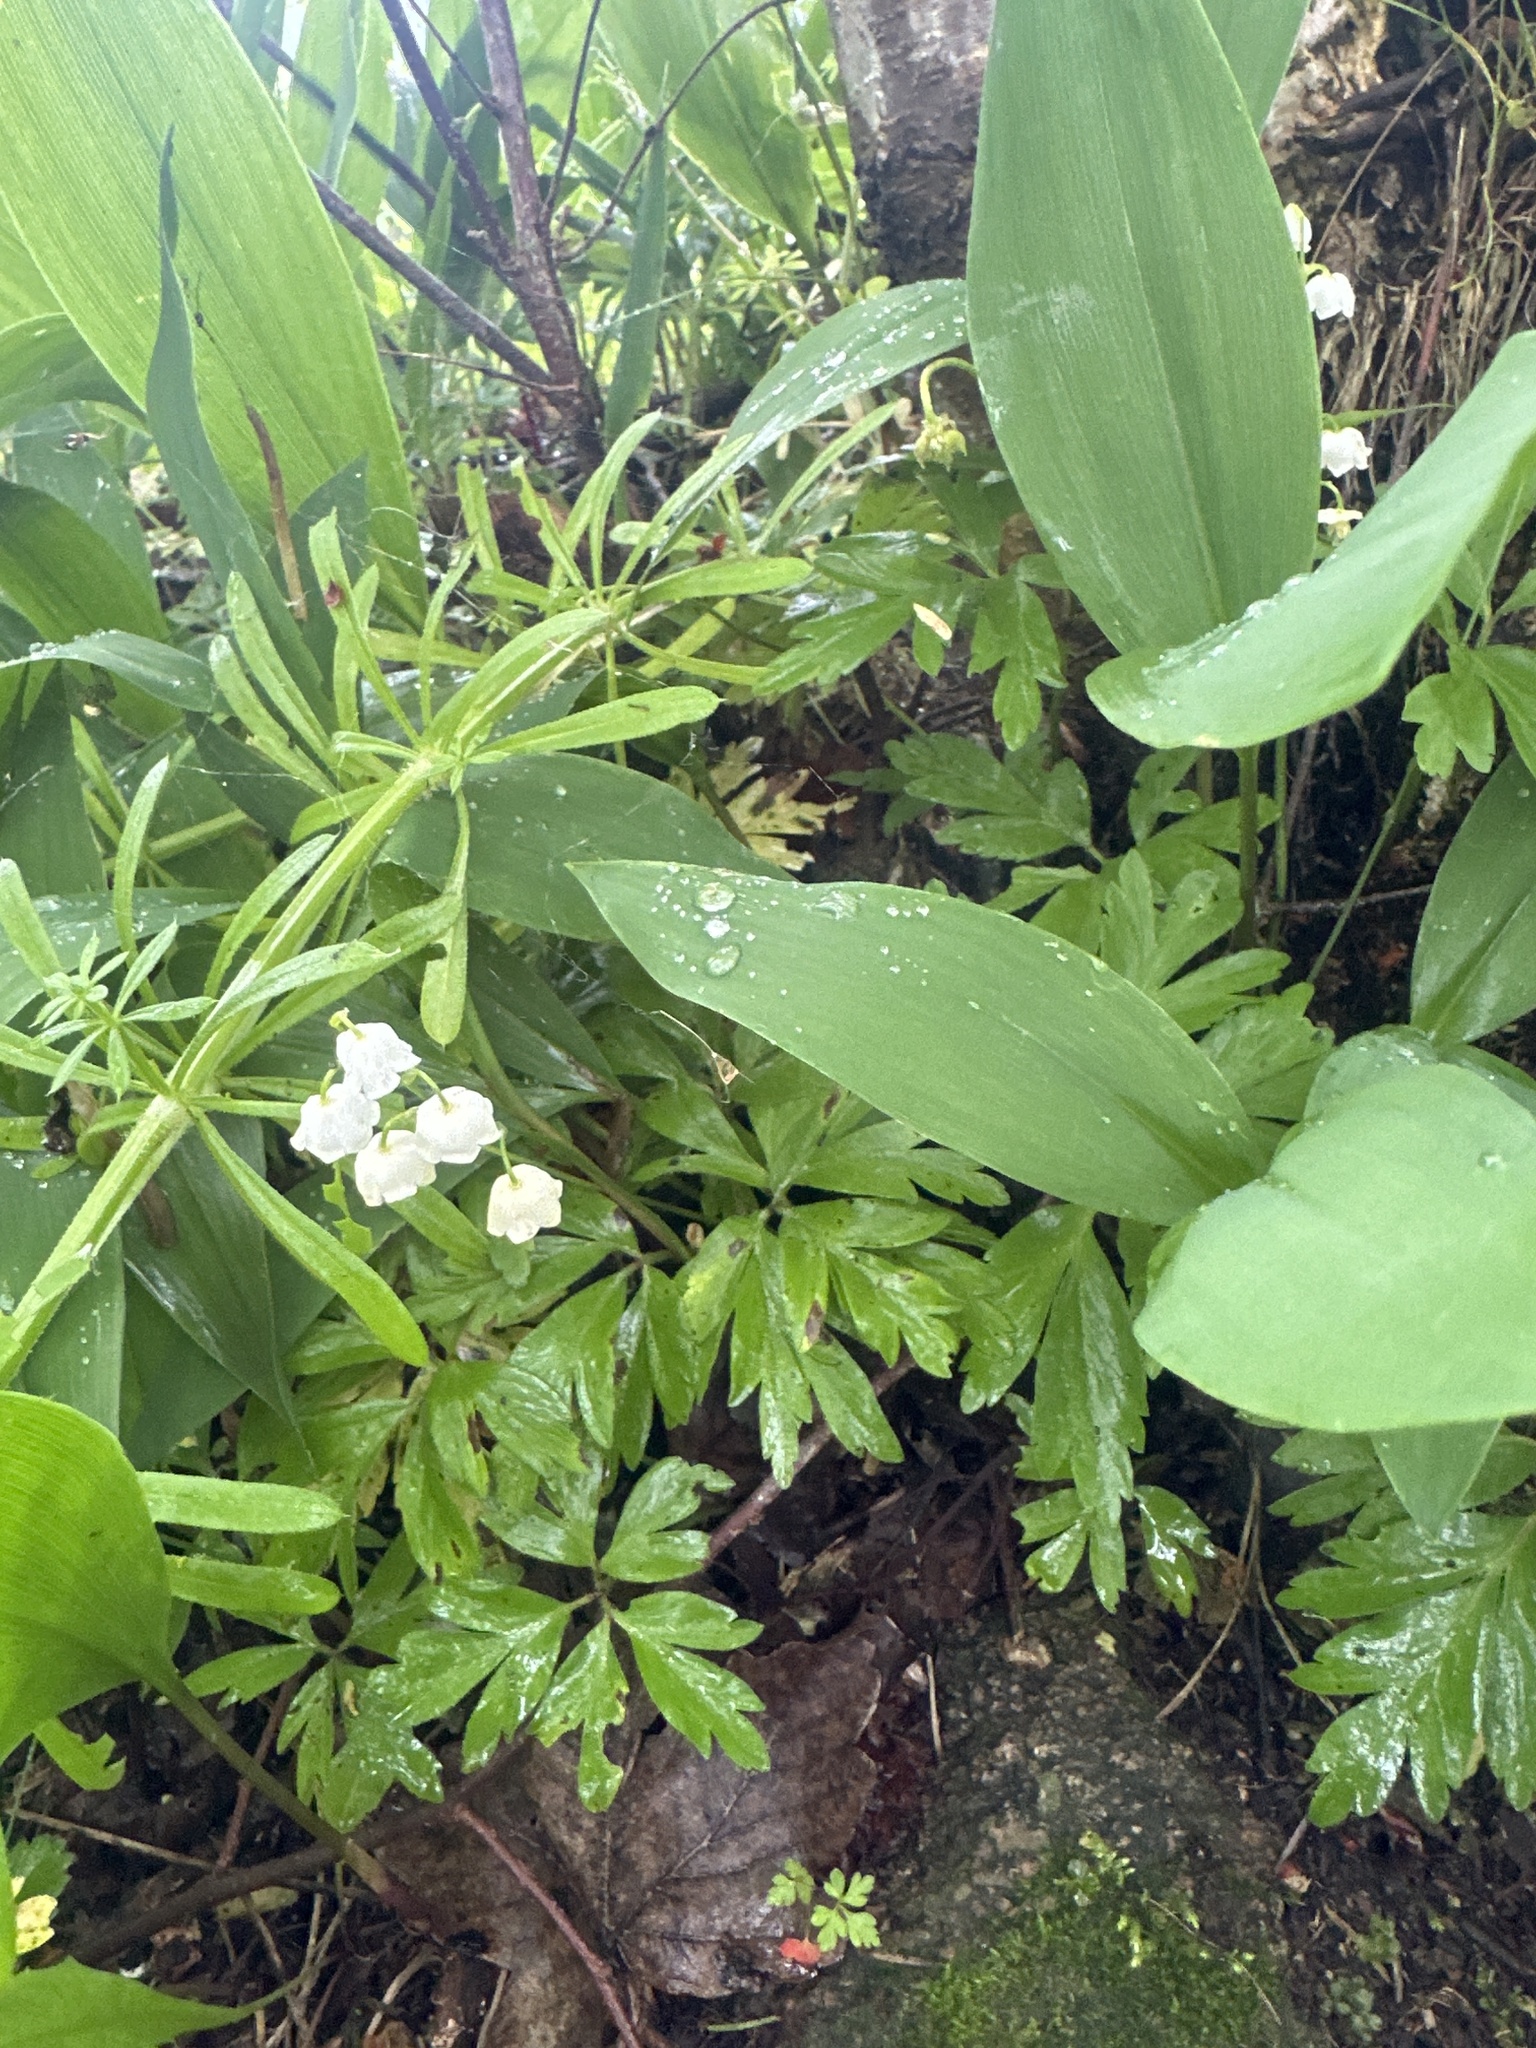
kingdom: Plantae
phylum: Tracheophyta
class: Liliopsida
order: Asparagales
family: Asparagaceae
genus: Convallaria
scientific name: Convallaria majalis
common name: Lily-of-the-valley
